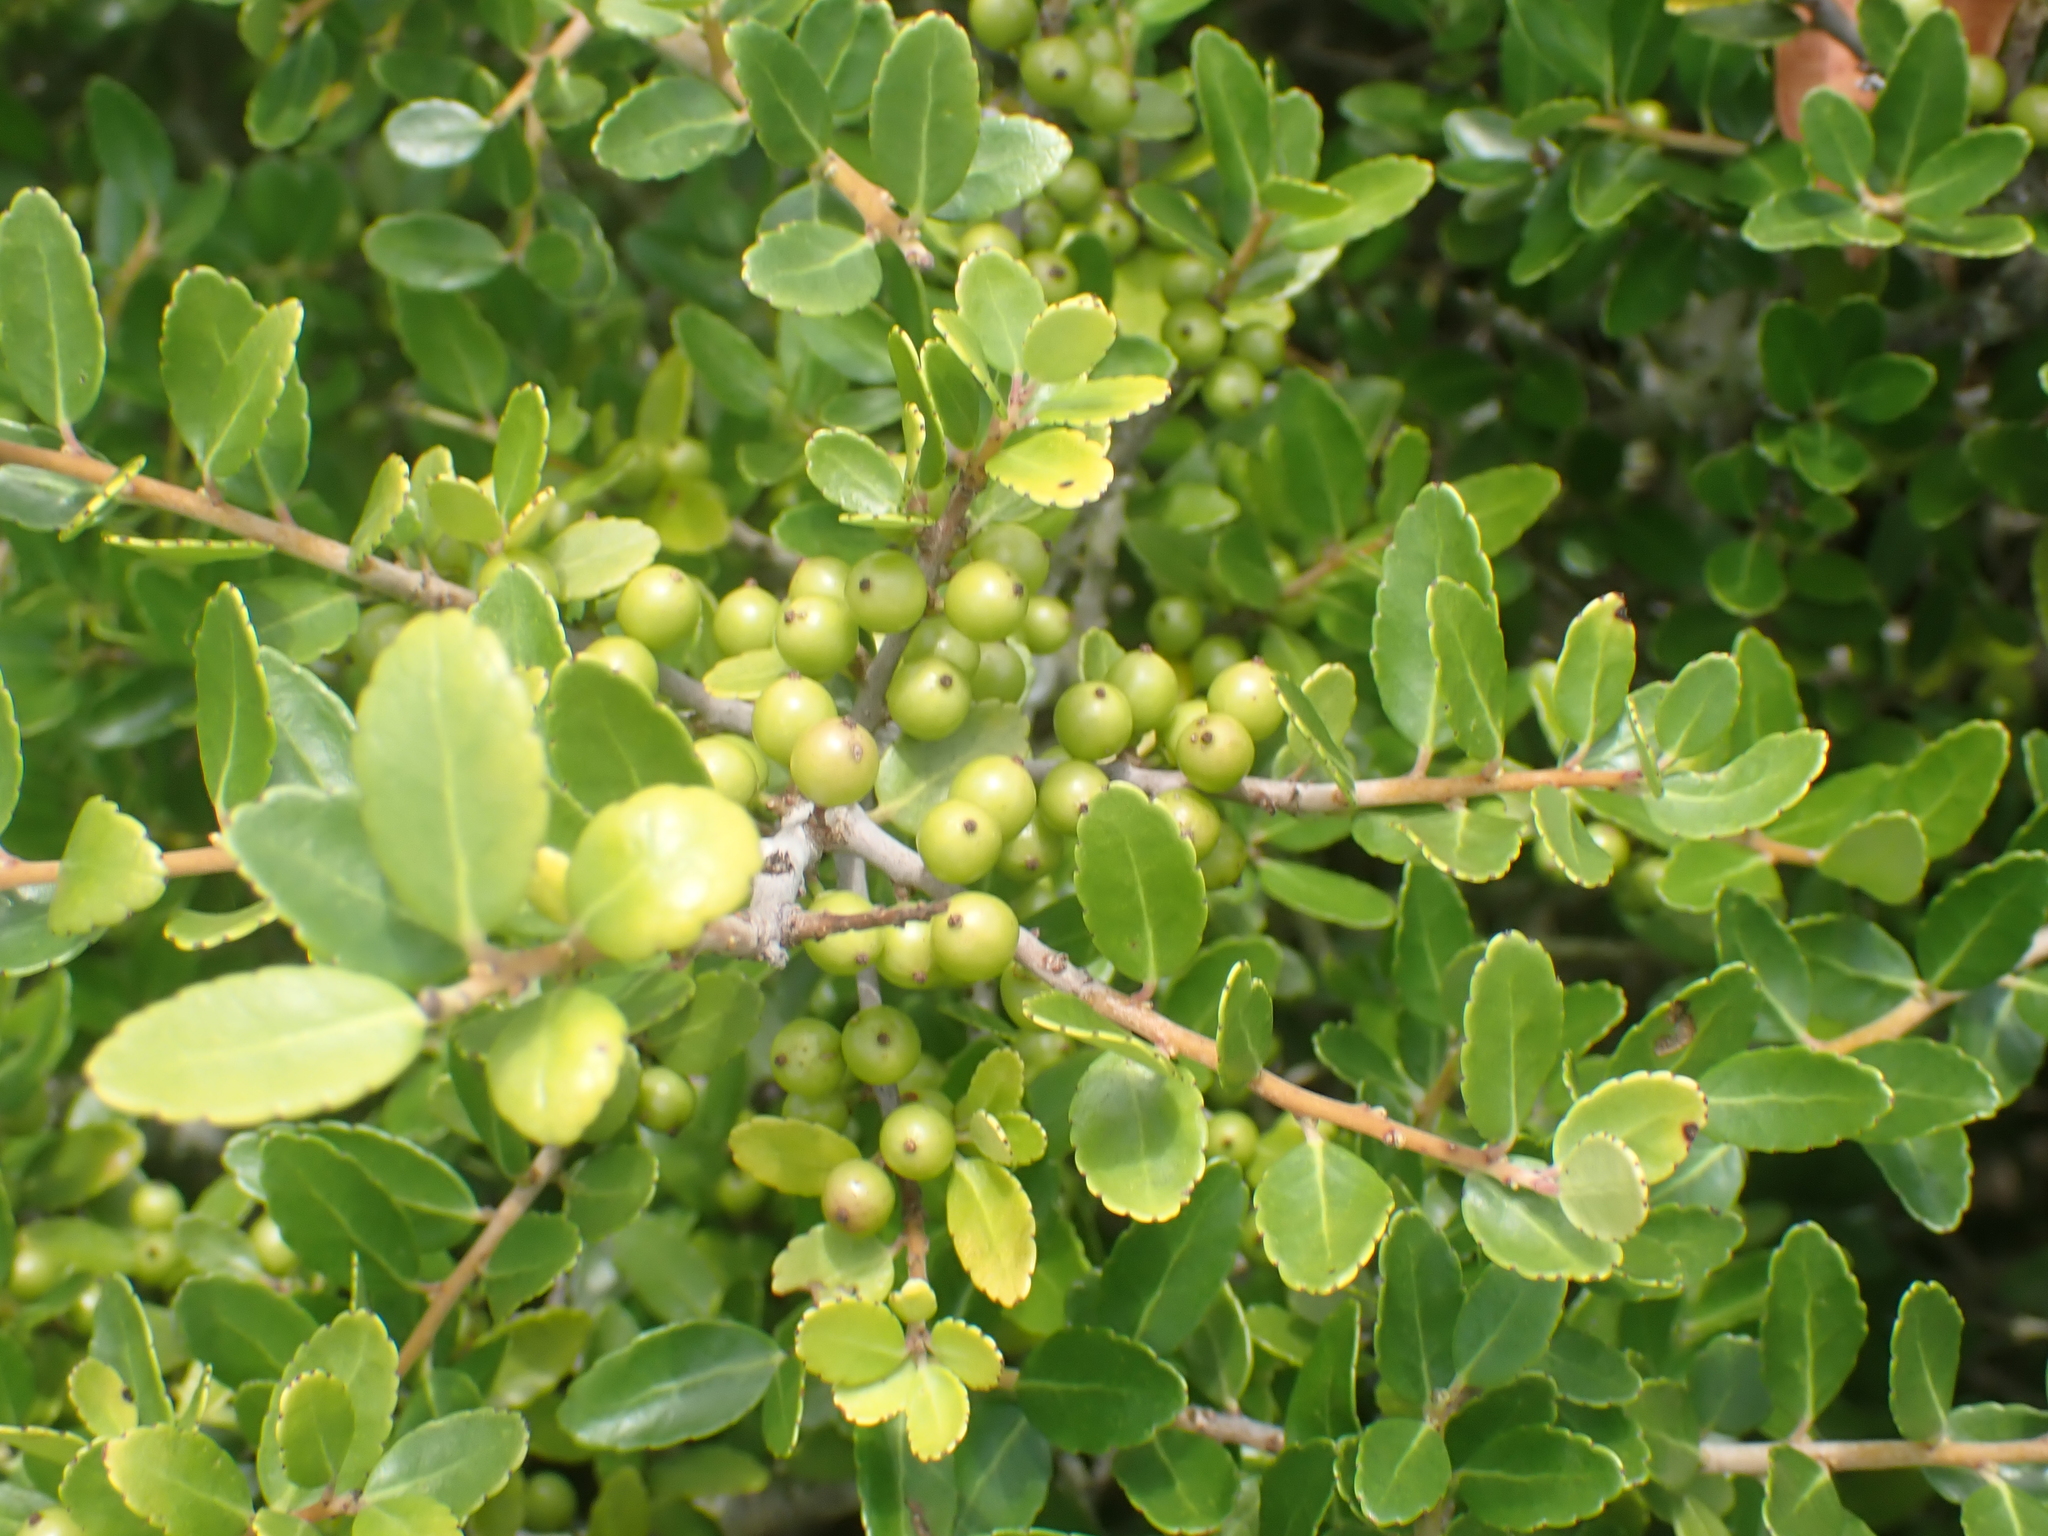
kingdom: Plantae
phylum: Tracheophyta
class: Magnoliopsida
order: Aquifoliales
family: Aquifoliaceae
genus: Ilex
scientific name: Ilex vomitoria
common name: Yaupon holly
